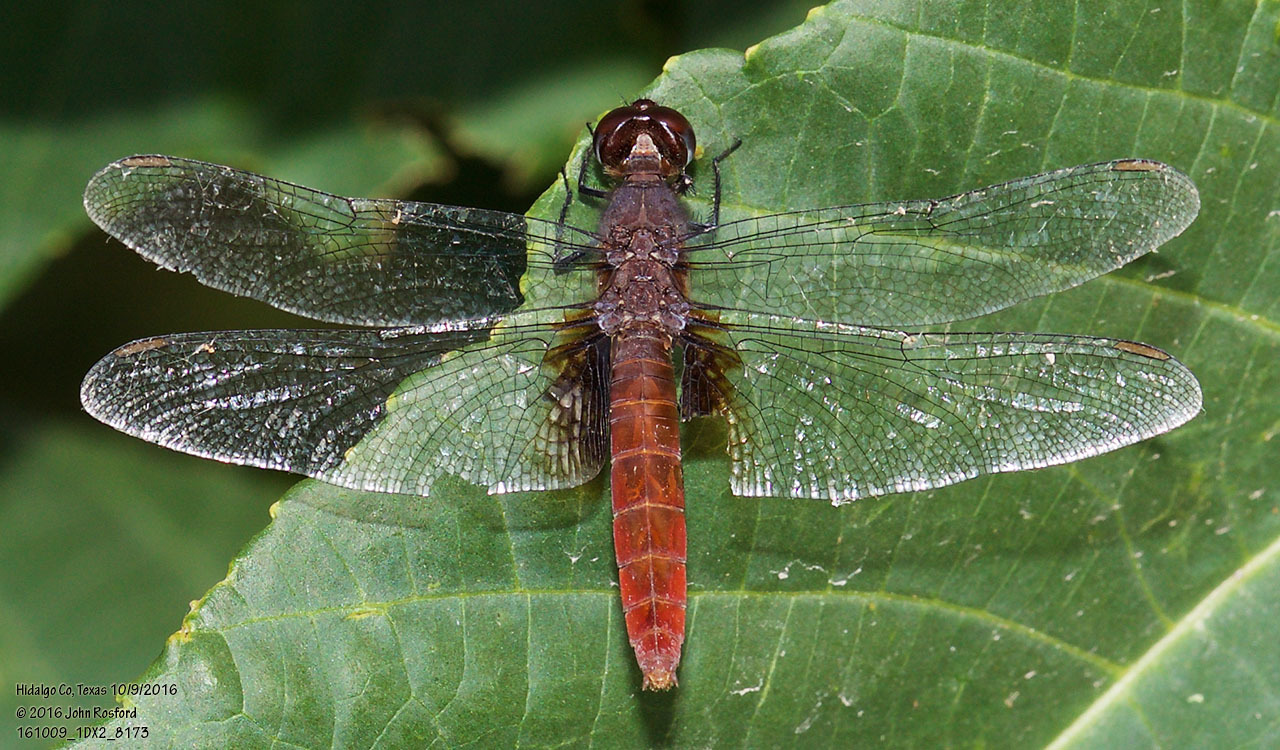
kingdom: Animalia
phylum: Arthropoda
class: Insecta
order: Odonata
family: Libellulidae
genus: Planiplax
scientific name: Planiplax sanguiniventris
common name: Mexican scarlet-tail
